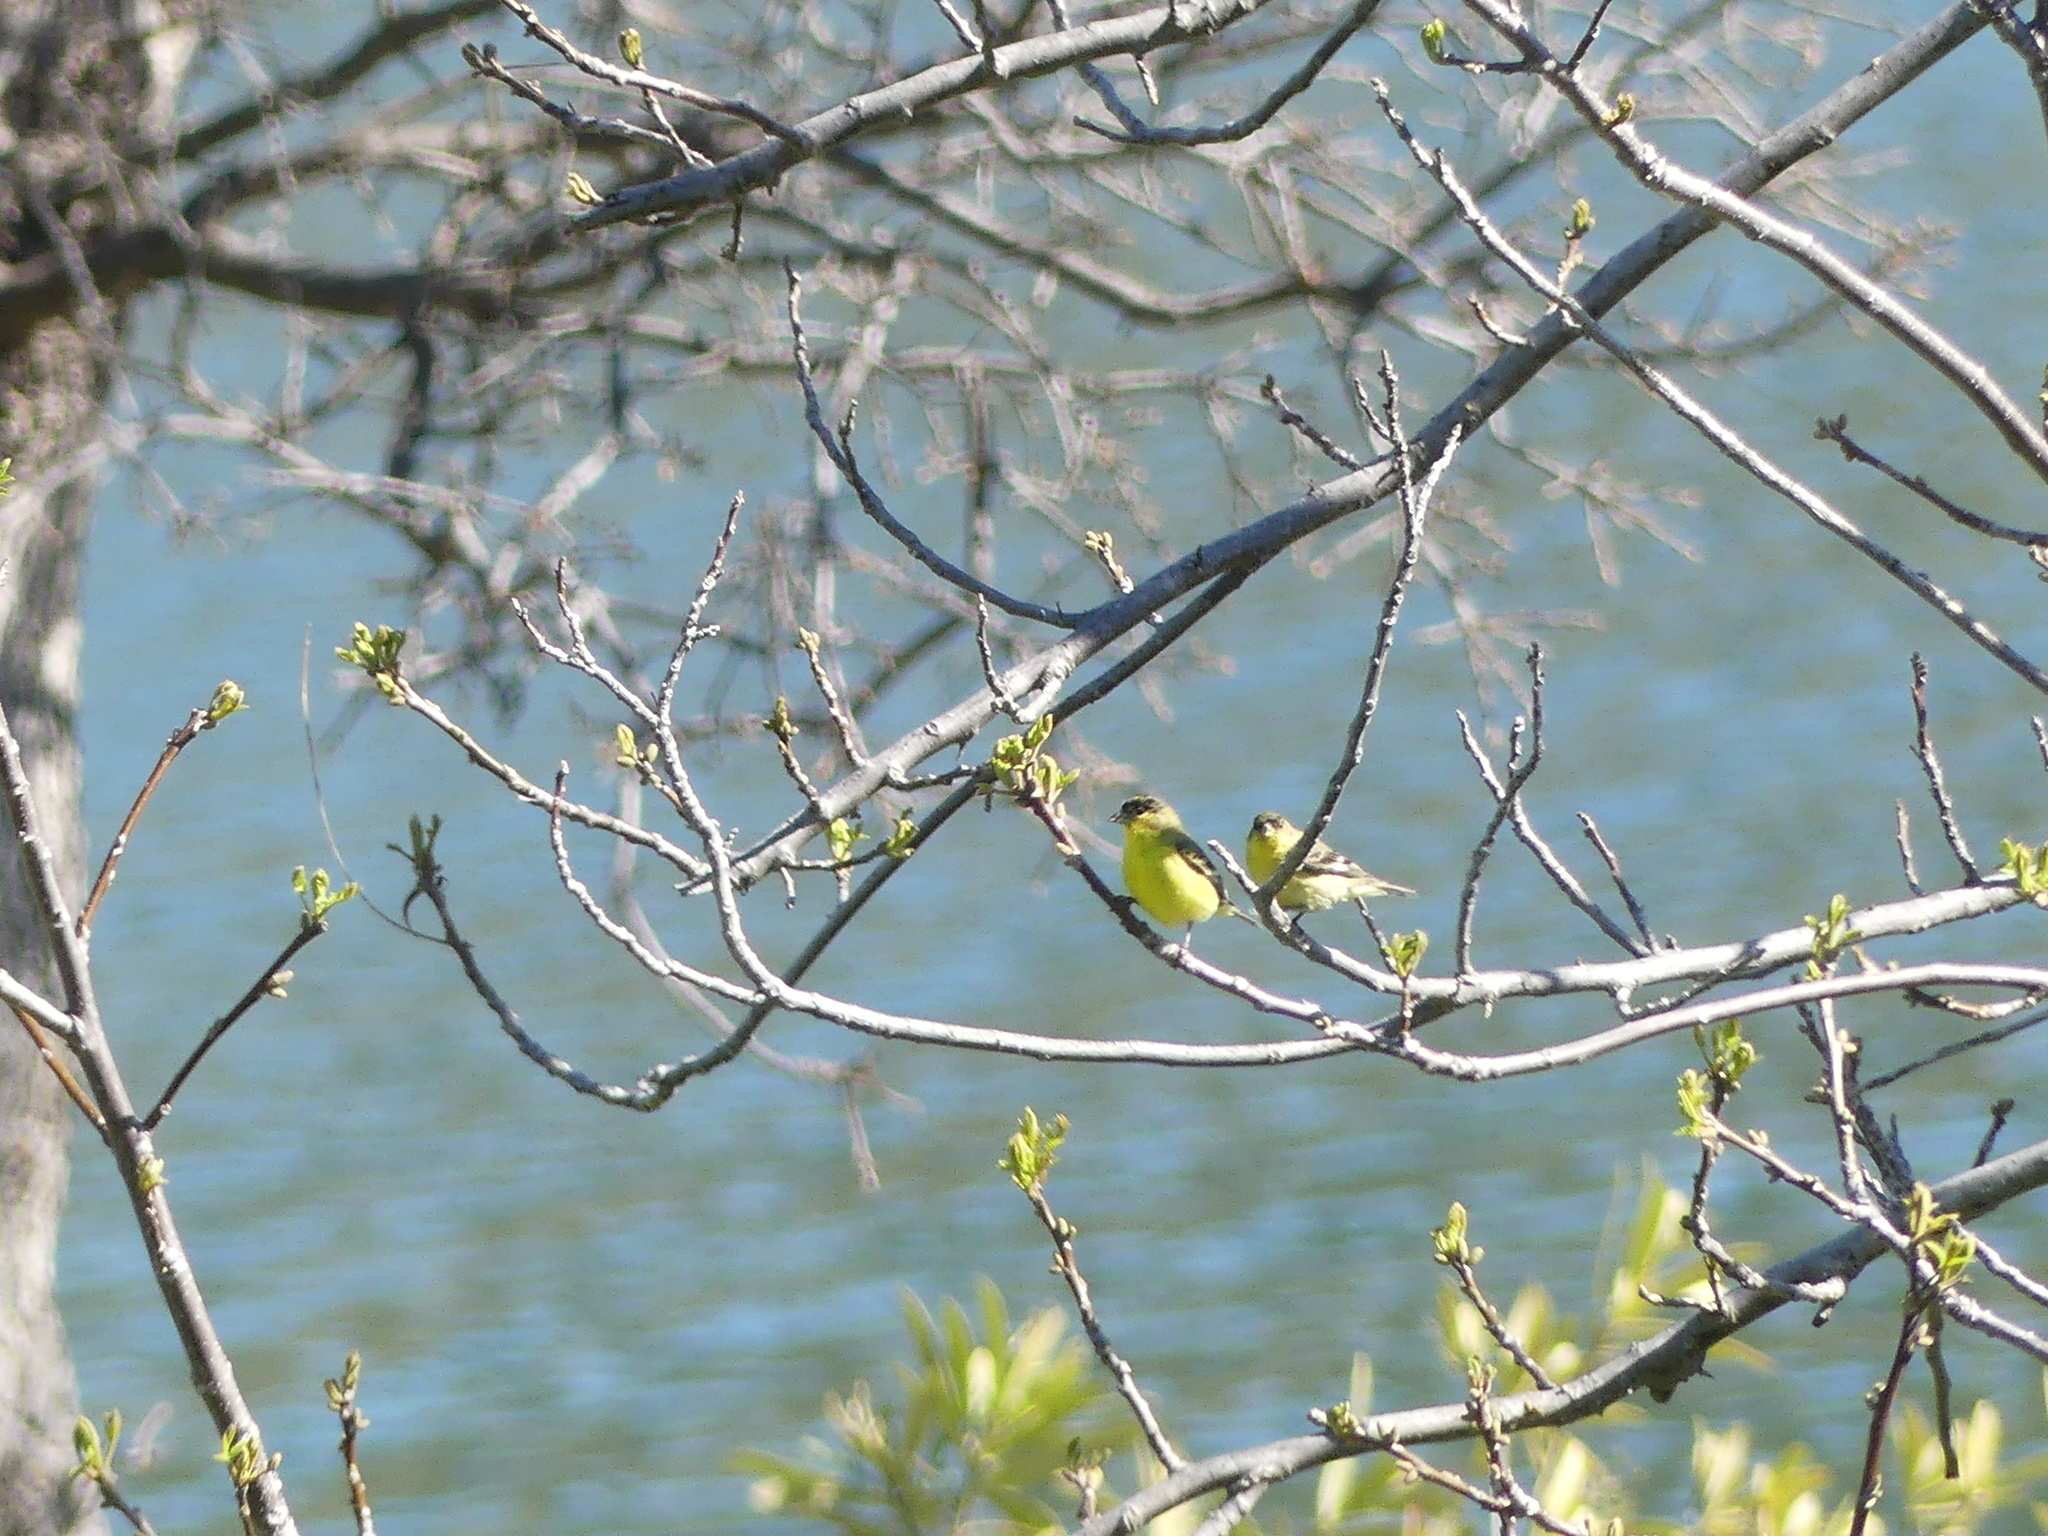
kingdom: Animalia
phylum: Chordata
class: Aves
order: Passeriformes
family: Fringillidae
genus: Spinus
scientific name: Spinus psaltria
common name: Lesser goldfinch
